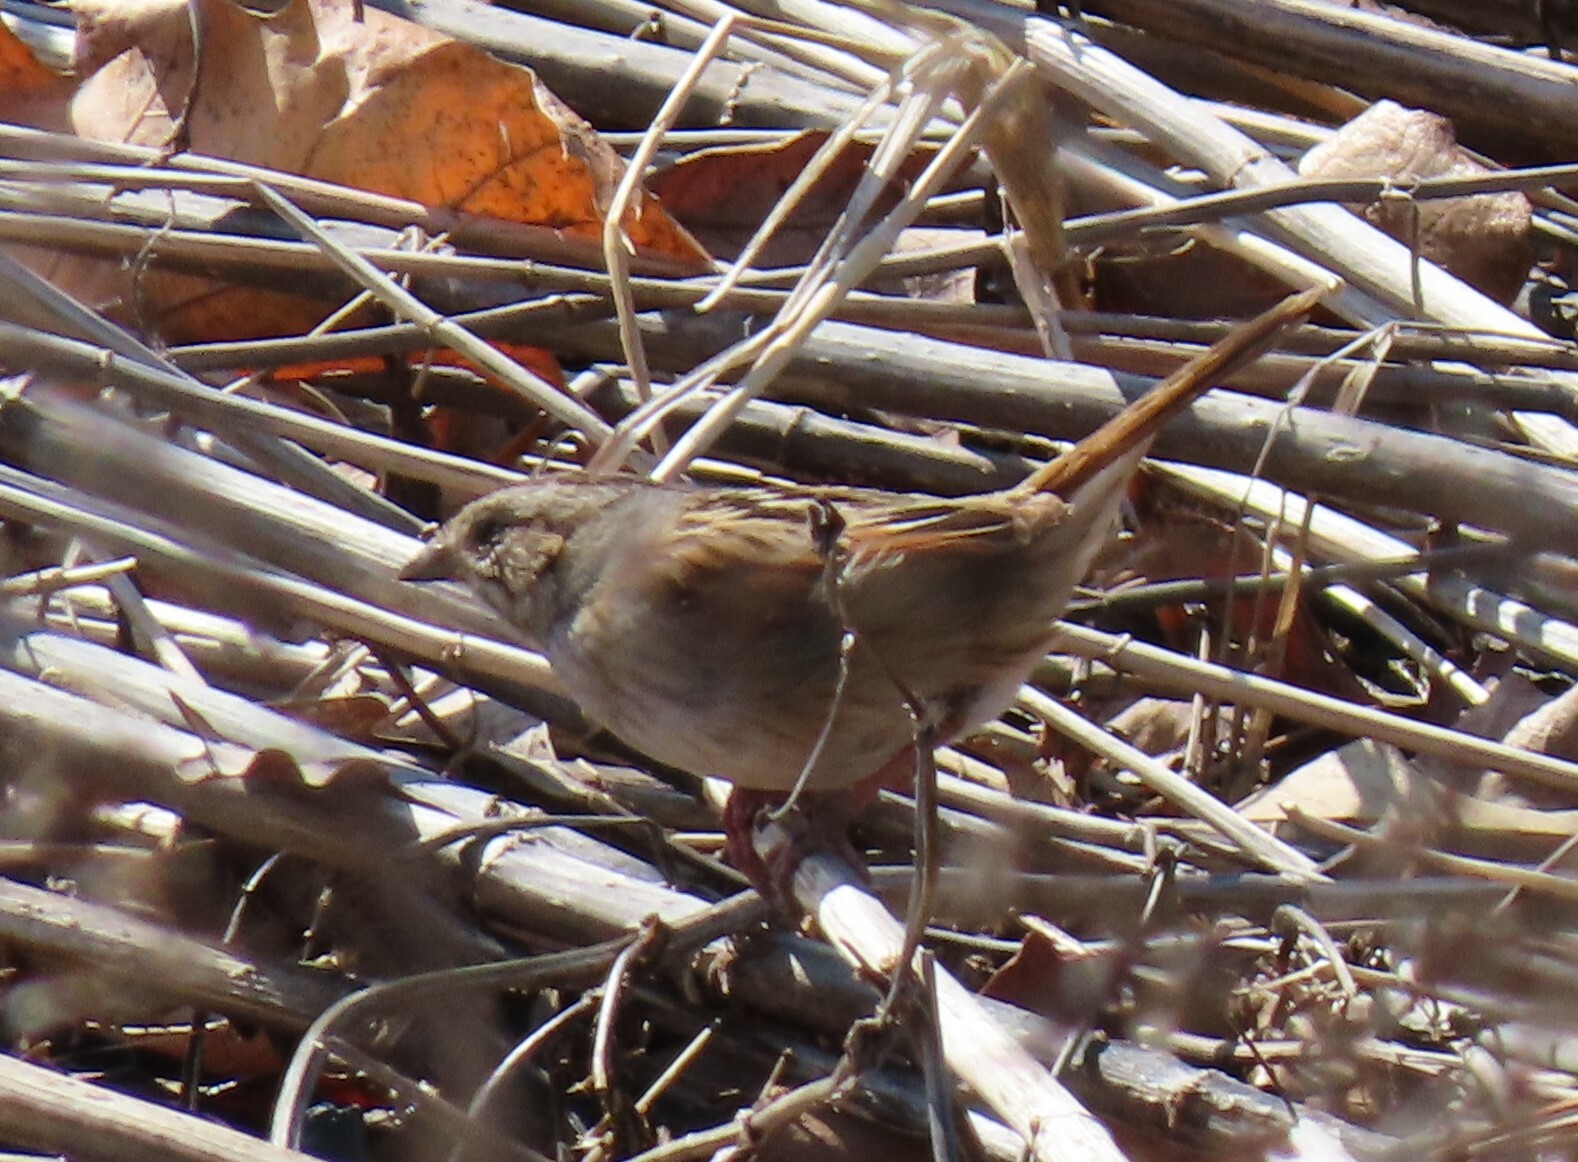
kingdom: Animalia
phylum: Chordata
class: Aves
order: Passeriformes
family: Passerellidae
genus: Melospiza
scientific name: Melospiza georgiana
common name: Swamp sparrow
